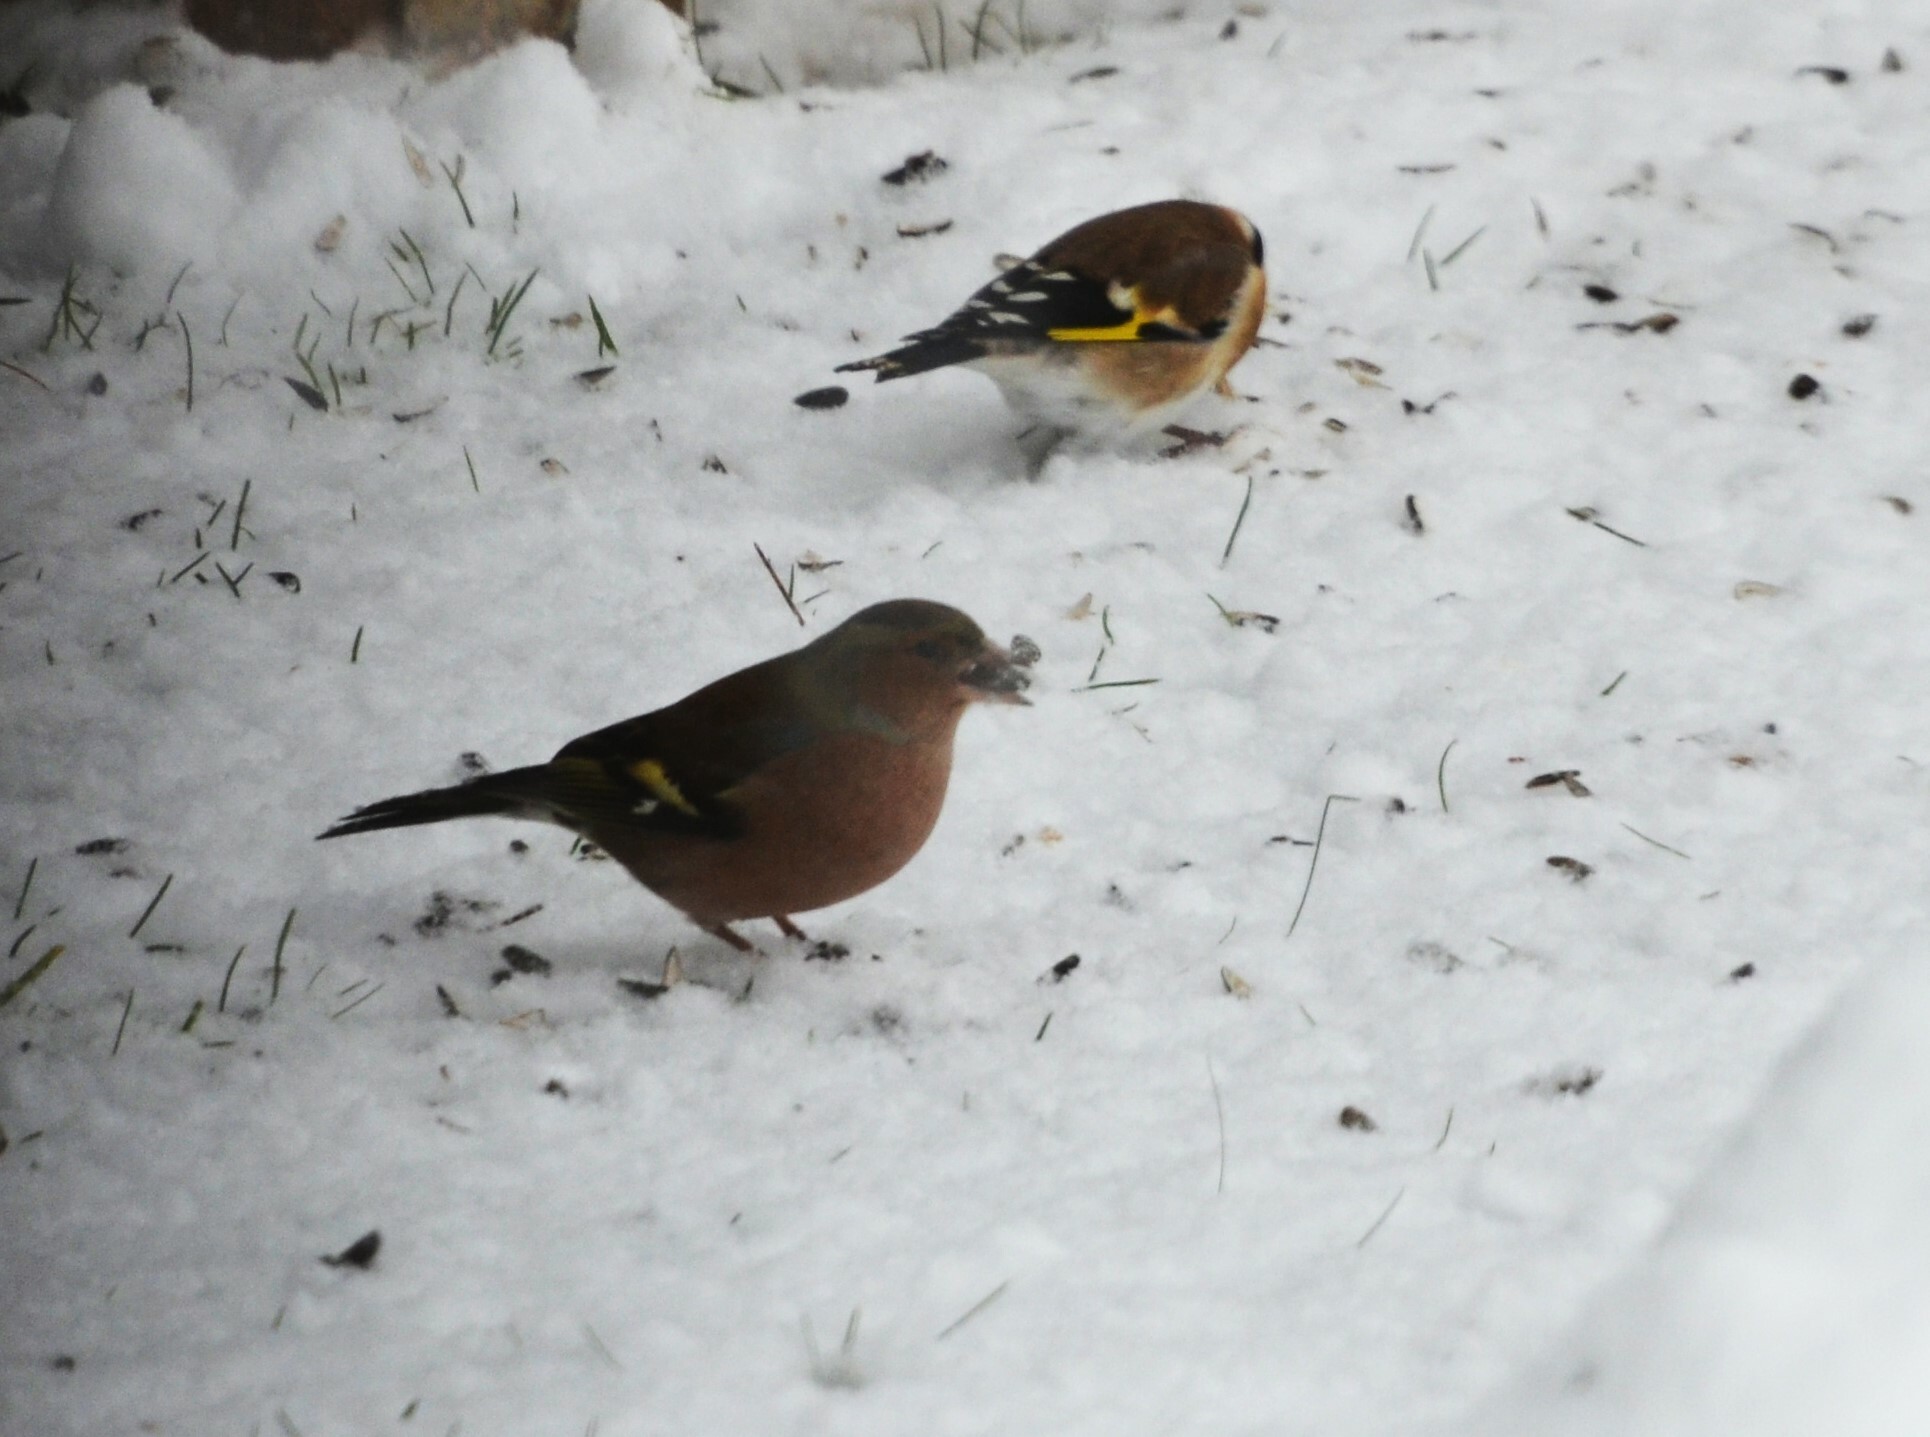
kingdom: Animalia
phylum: Chordata
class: Aves
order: Passeriformes
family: Fringillidae
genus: Fringilla
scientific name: Fringilla coelebs
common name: Common chaffinch
